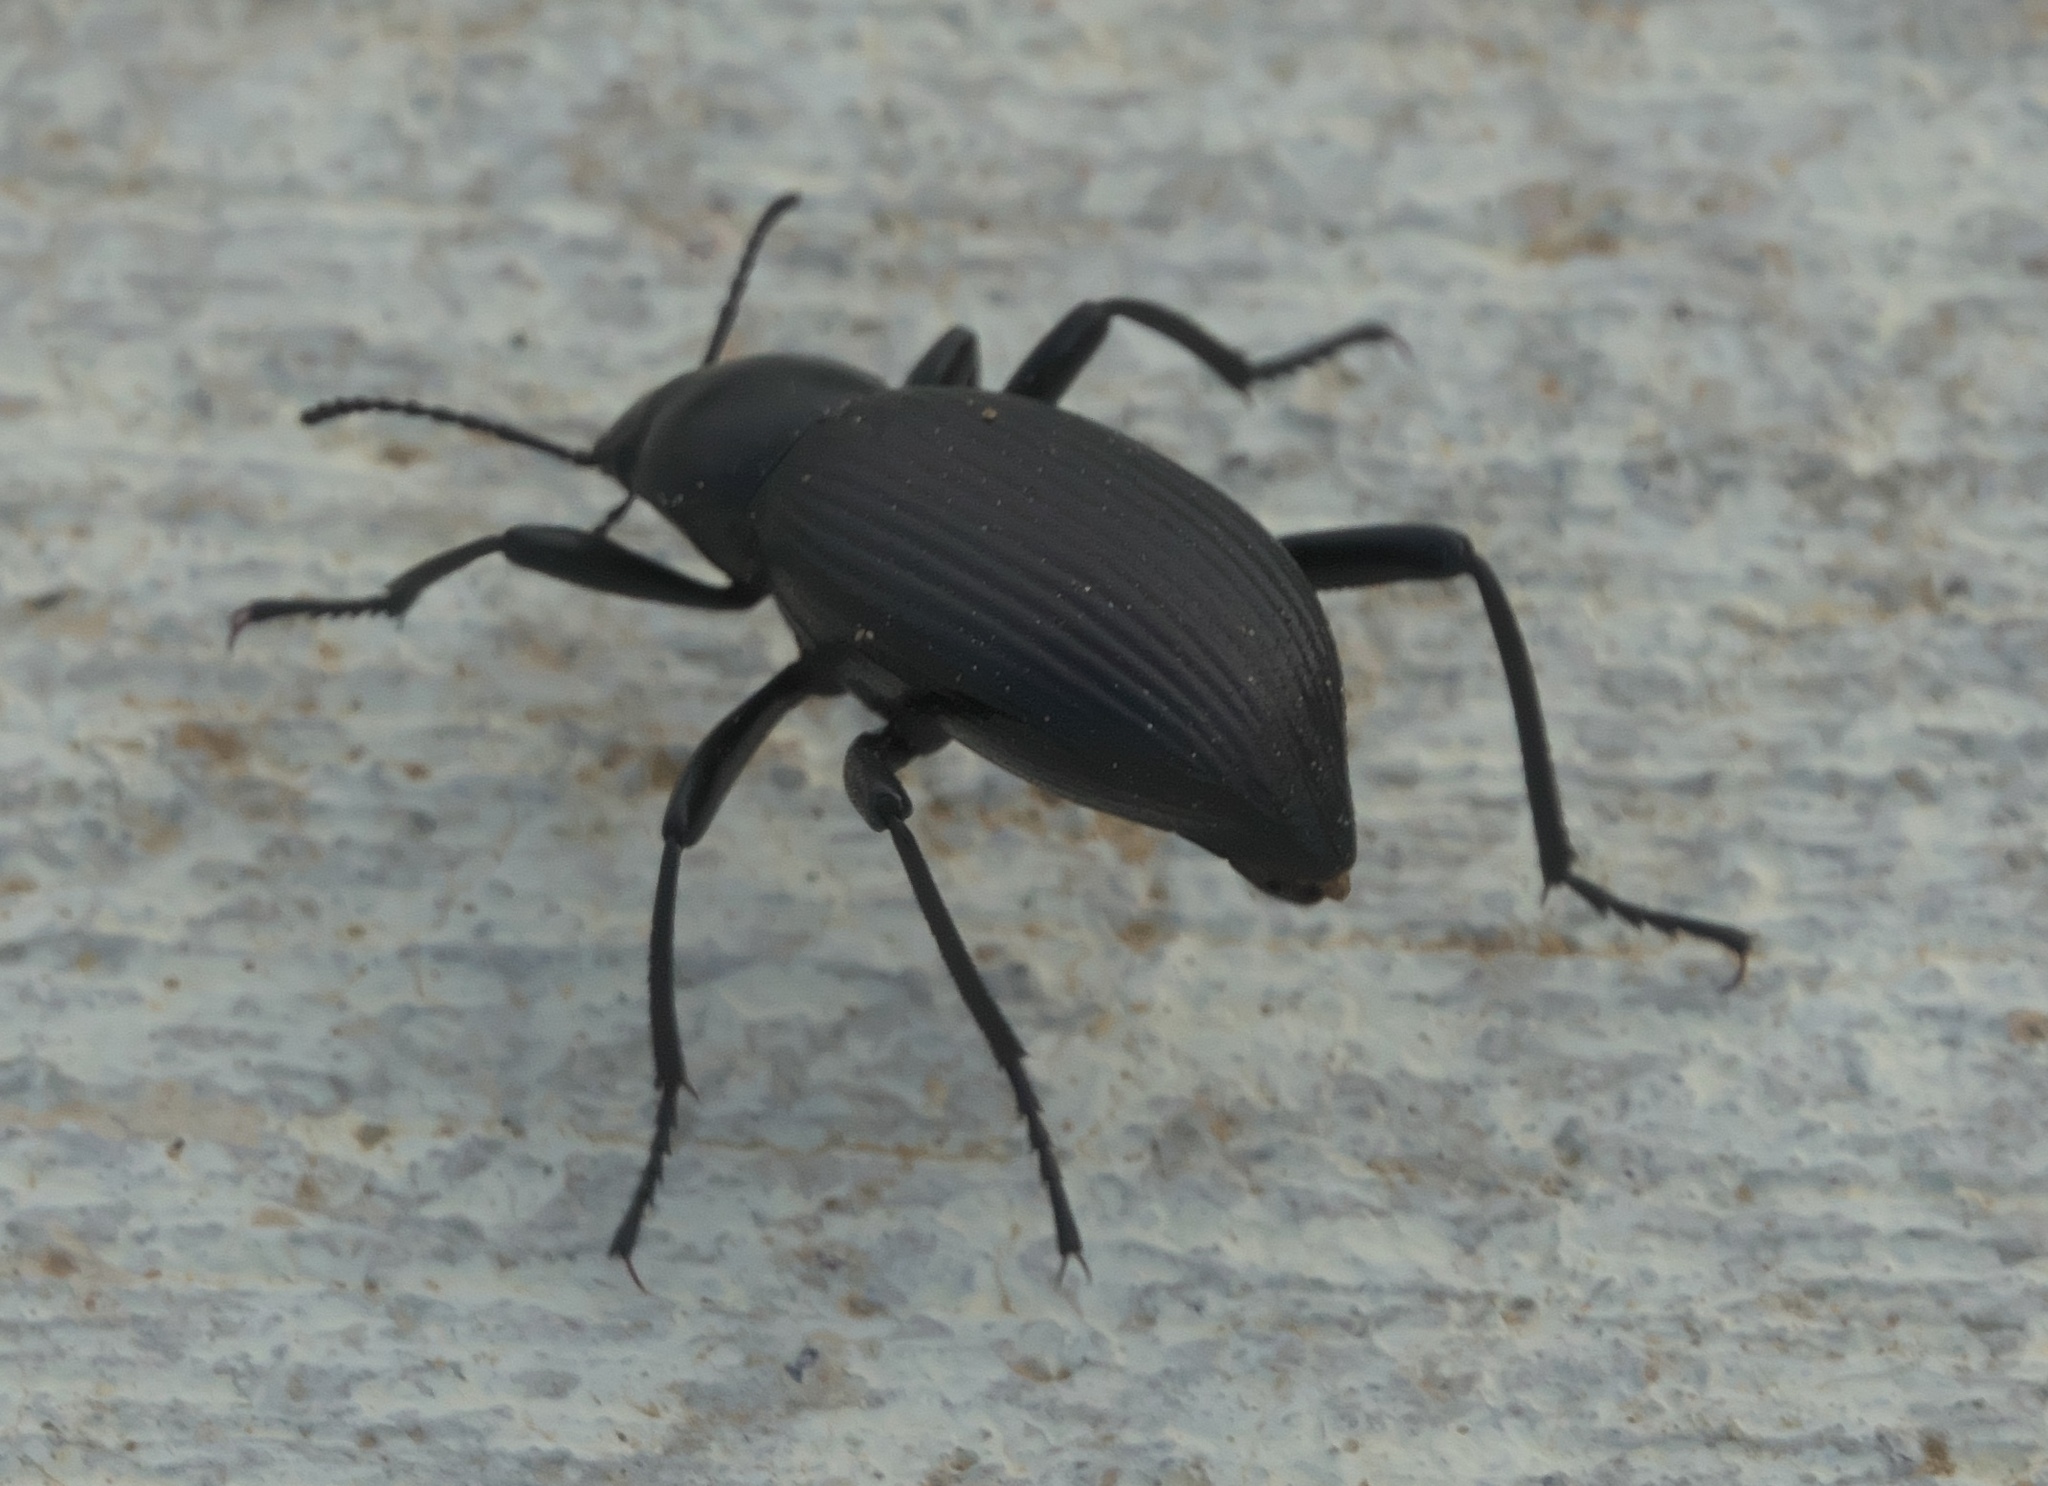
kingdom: Animalia
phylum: Arthropoda
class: Insecta
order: Coleoptera
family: Tenebrionidae
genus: Eleodes
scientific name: Eleodes hispilabris
